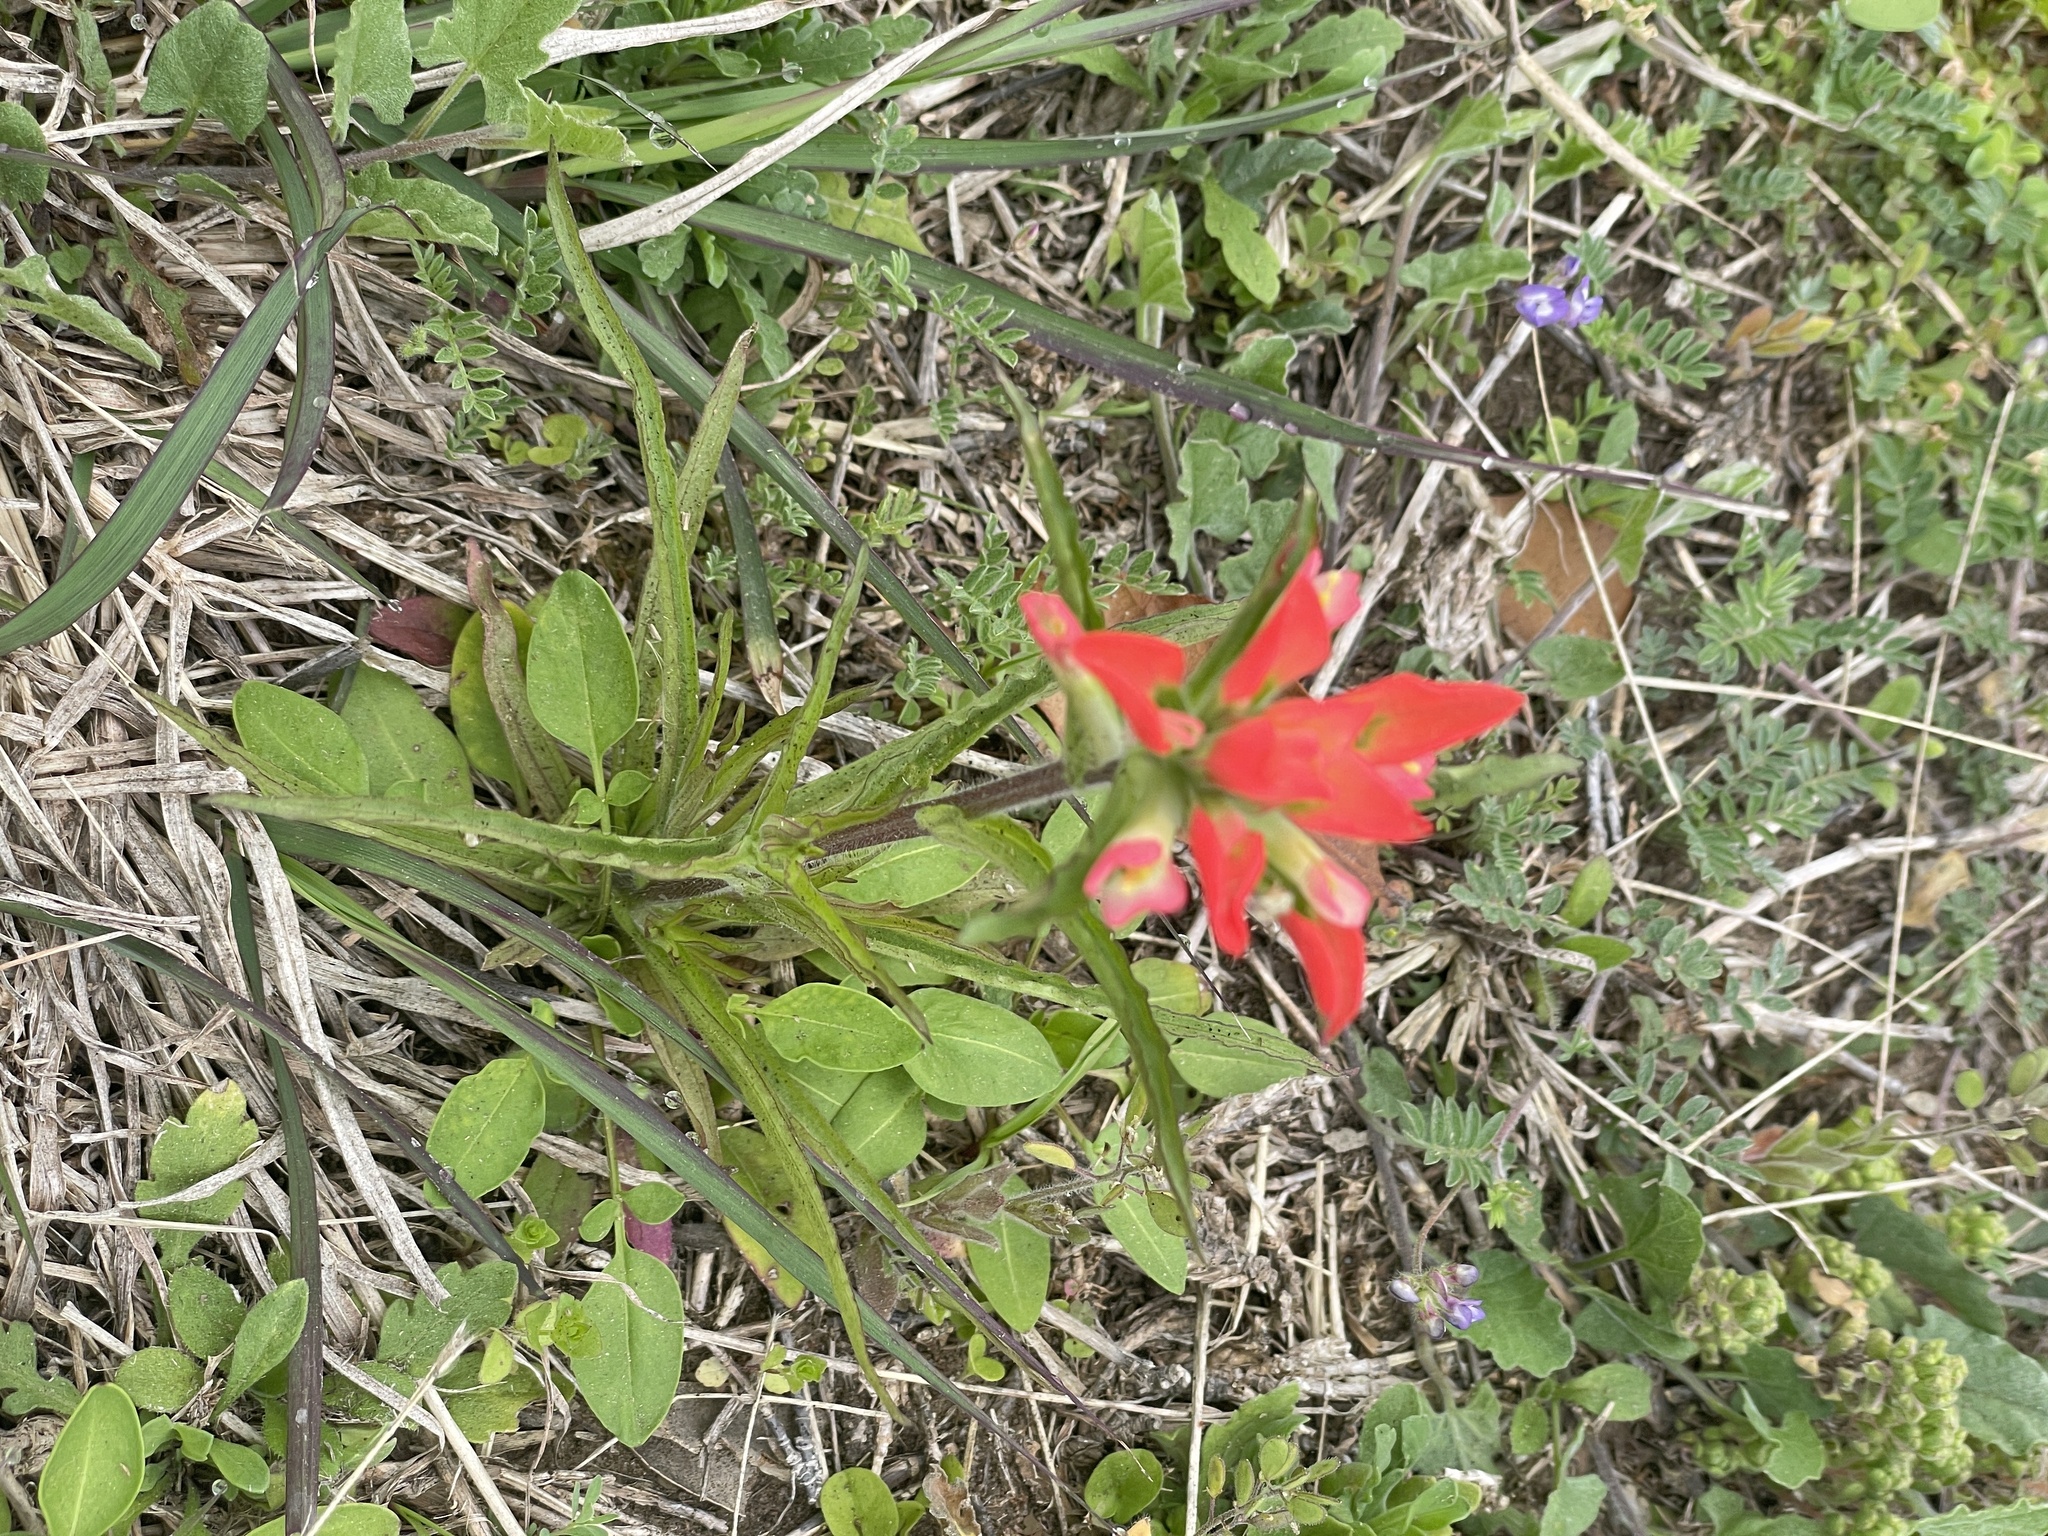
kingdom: Plantae
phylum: Tracheophyta
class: Magnoliopsida
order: Lamiales
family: Orobanchaceae
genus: Castilleja
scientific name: Castilleja indivisa
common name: Texas paintbrush
